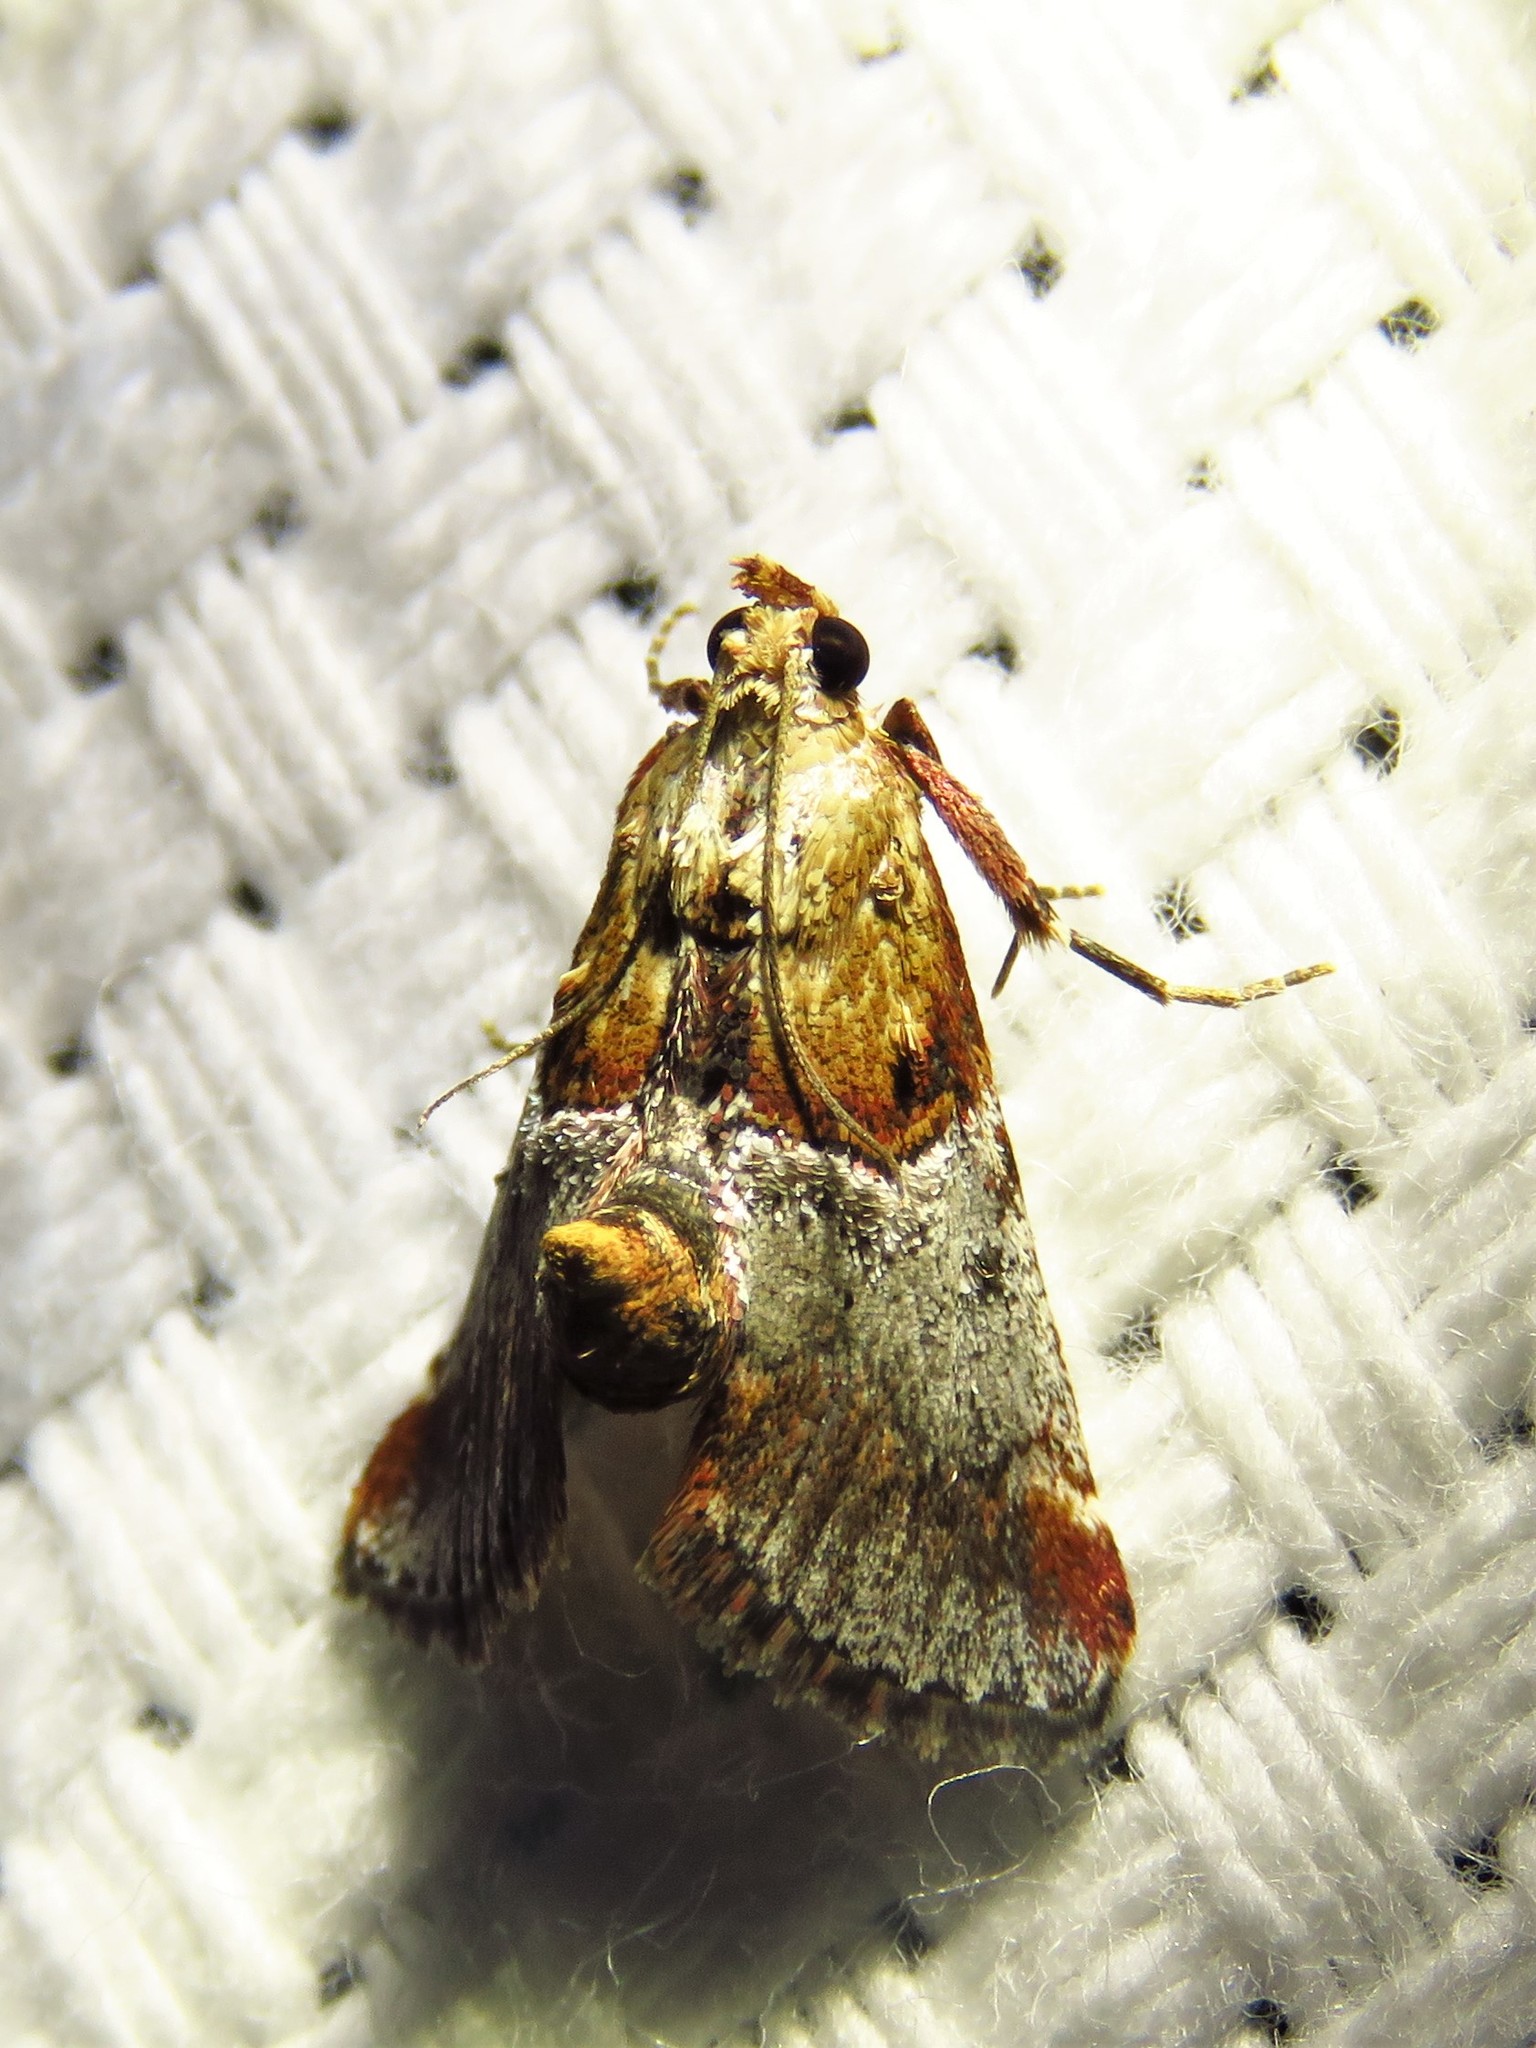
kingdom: Animalia
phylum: Arthropoda
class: Insecta
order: Lepidoptera
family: Pyralidae
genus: Cacozelia
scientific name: Cacozelia basiochrealis
